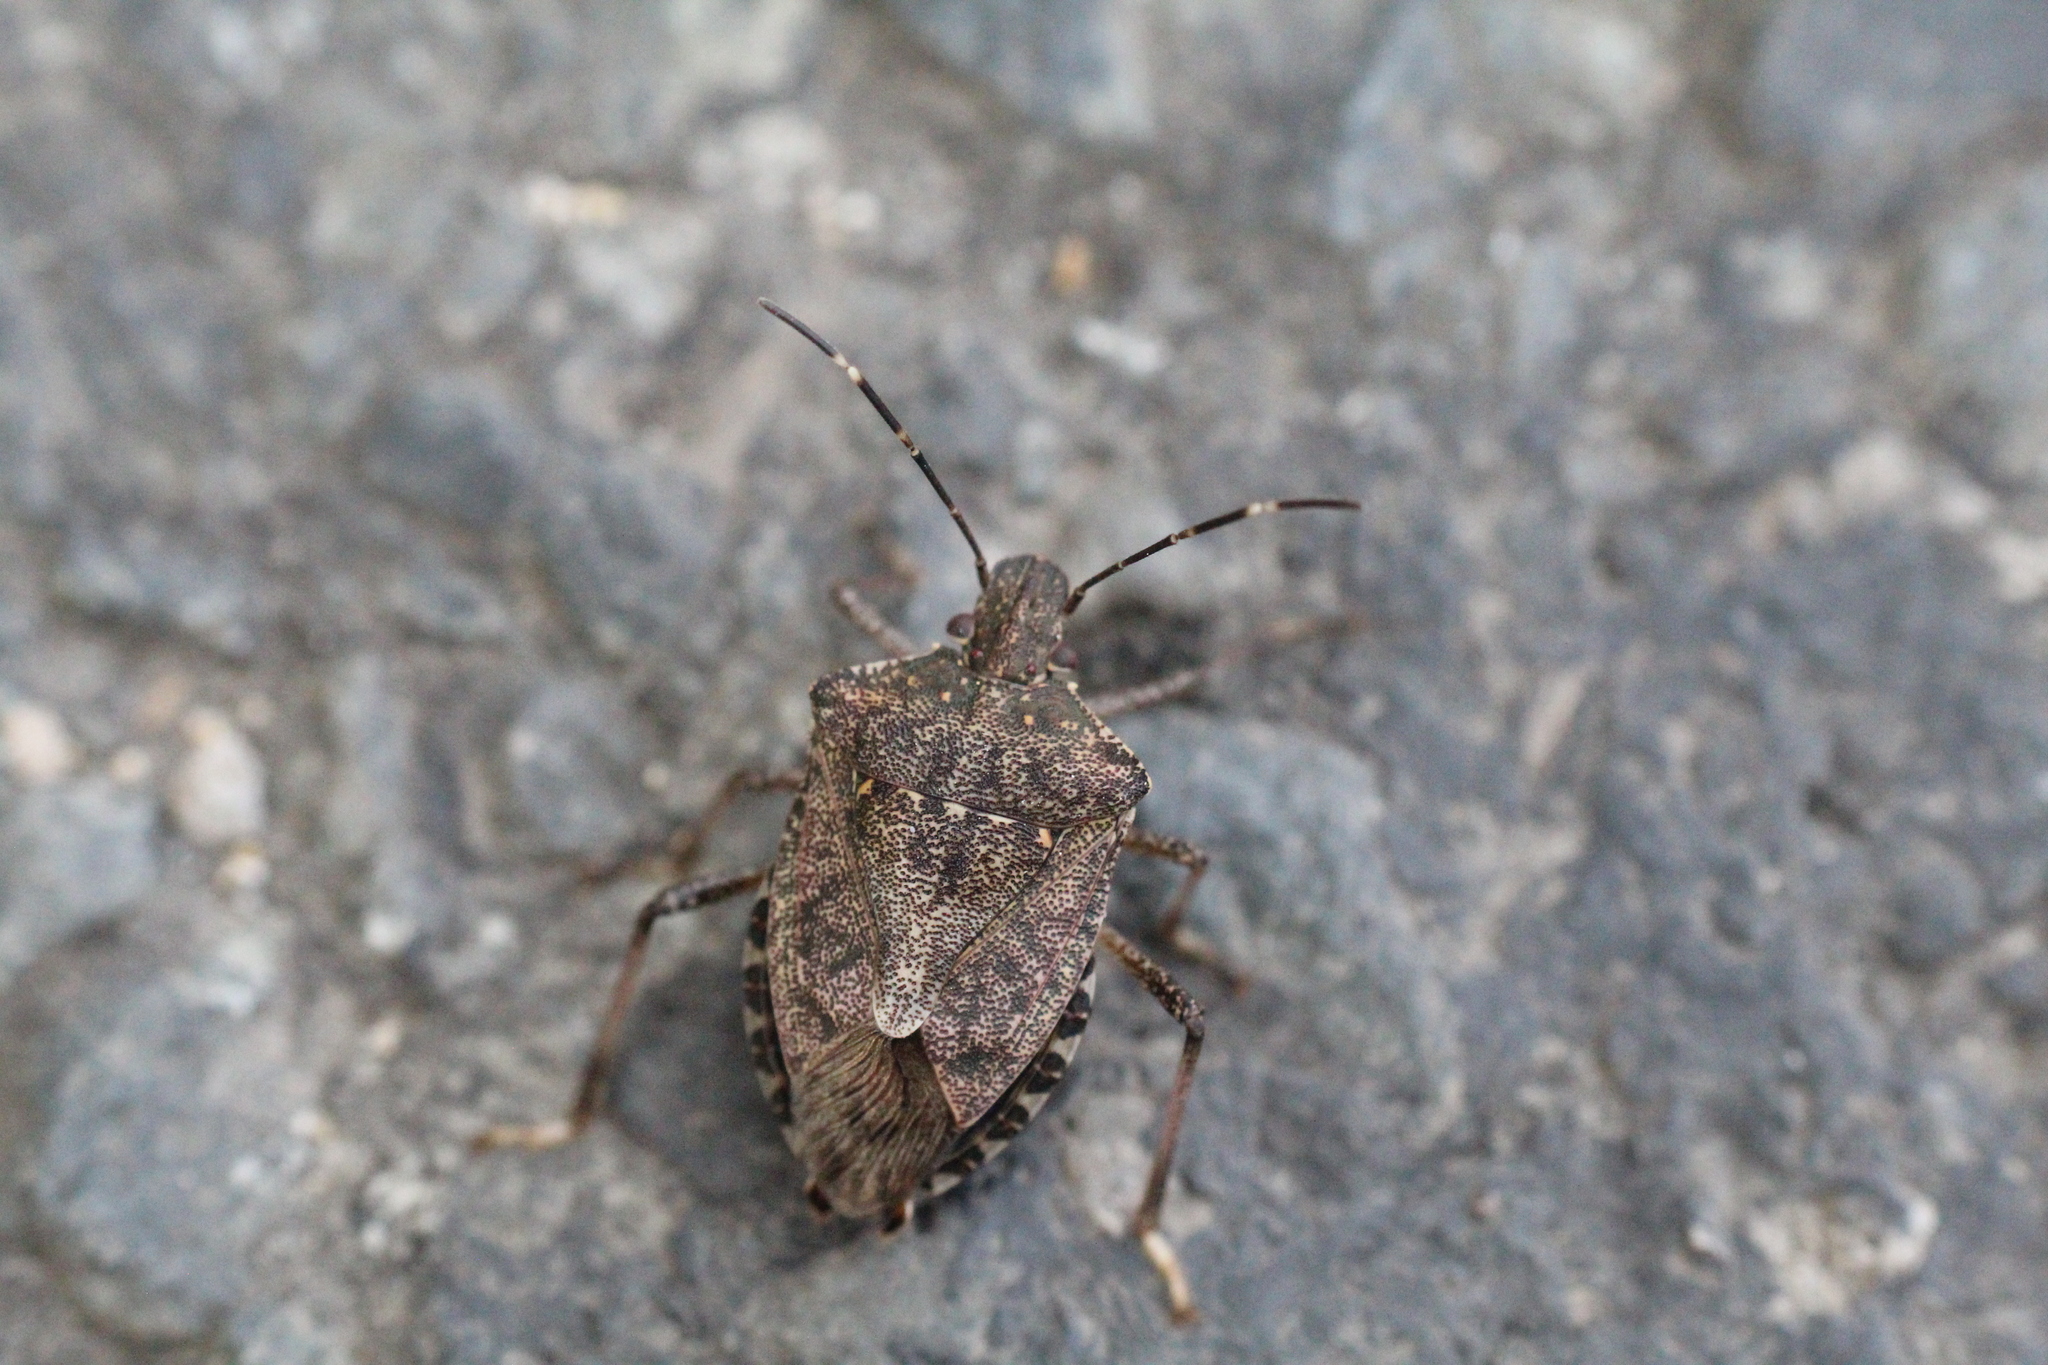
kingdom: Animalia
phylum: Arthropoda
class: Insecta
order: Hemiptera
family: Pentatomidae
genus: Halyomorpha
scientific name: Halyomorpha halys
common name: Brown marmorated stink bug
